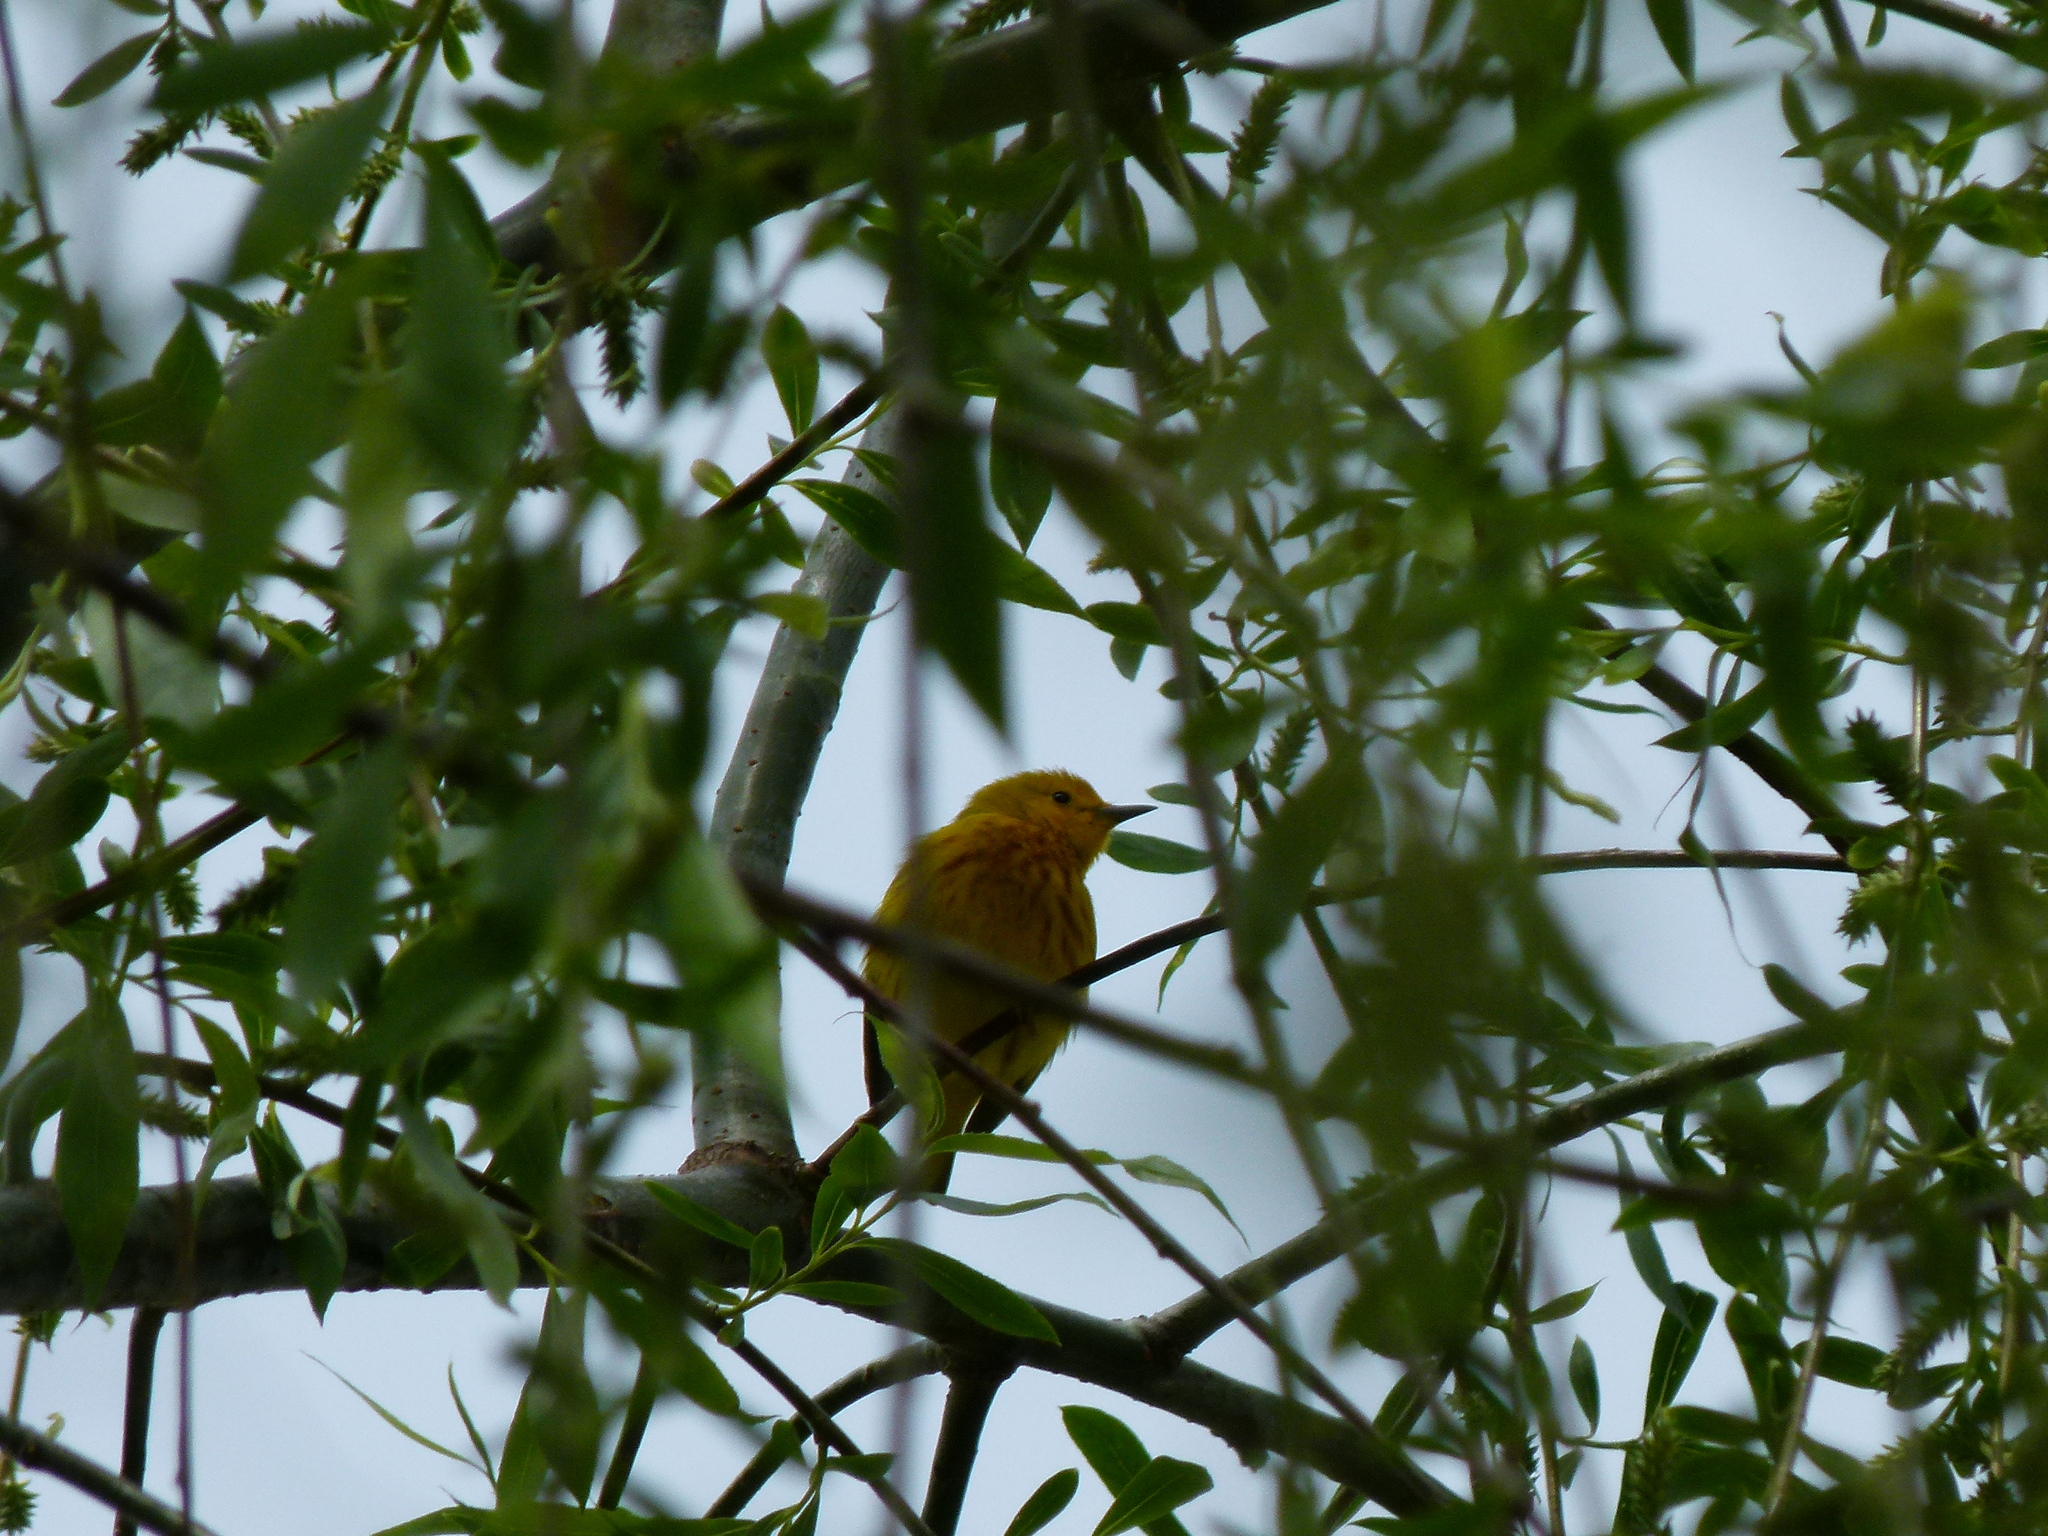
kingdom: Animalia
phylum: Chordata
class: Aves
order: Passeriformes
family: Parulidae
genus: Setophaga
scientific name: Setophaga petechia
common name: Yellow warbler
